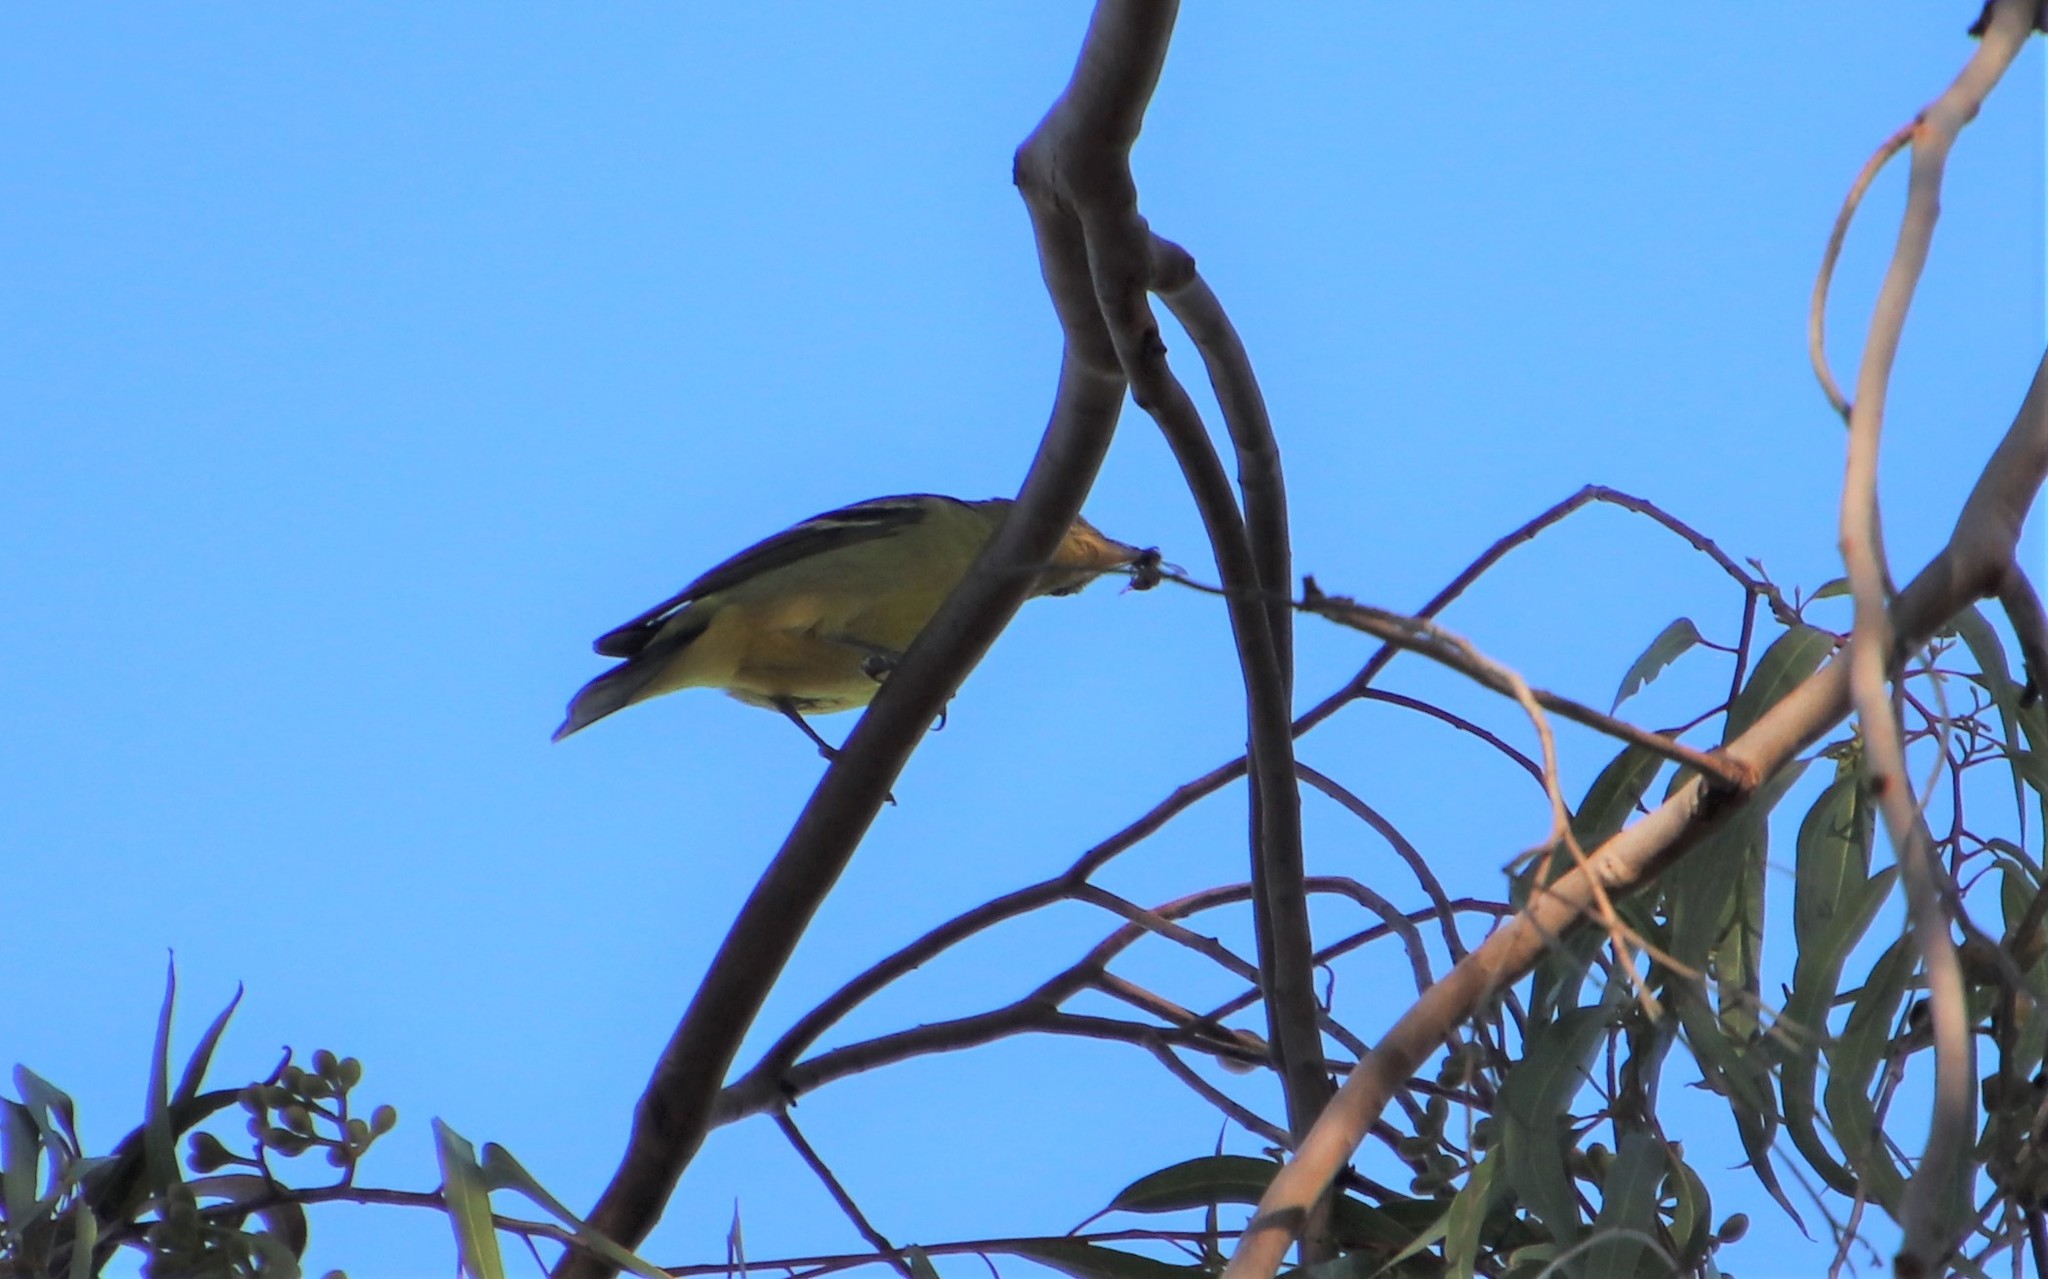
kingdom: Animalia
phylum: Chordata
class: Aves
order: Passeriformes
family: Cardinalidae
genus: Piranga
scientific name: Piranga ludoviciana
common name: Western tanager
